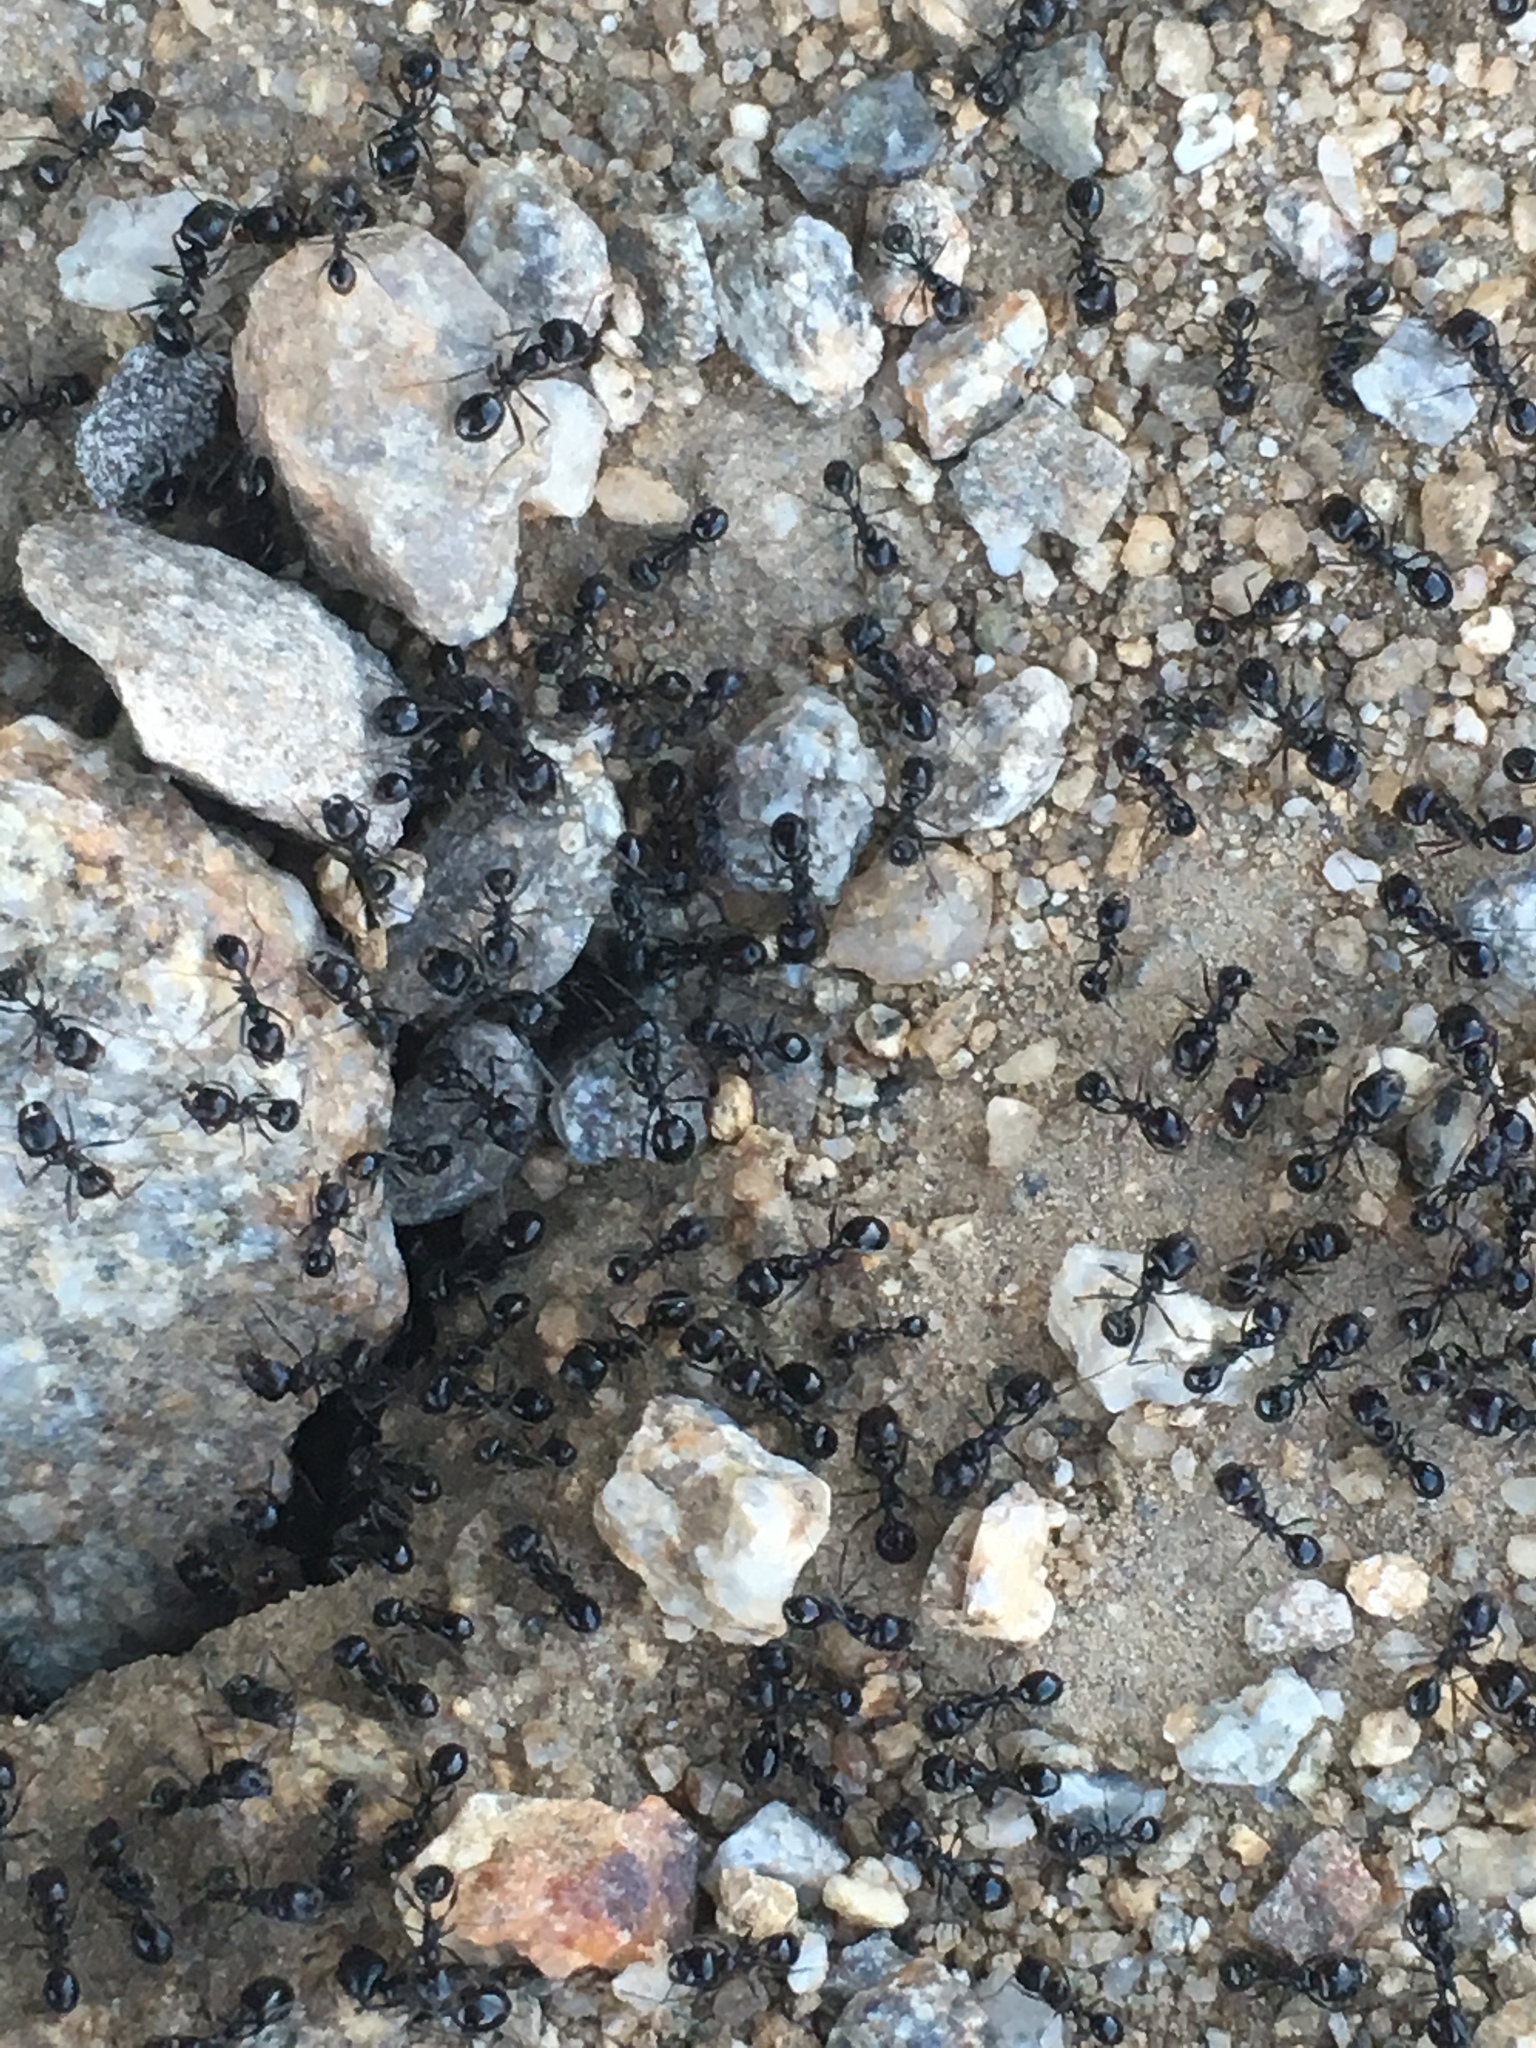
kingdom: Animalia
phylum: Arthropoda
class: Insecta
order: Hymenoptera
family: Formicidae
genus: Messor
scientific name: Messor pergandei
